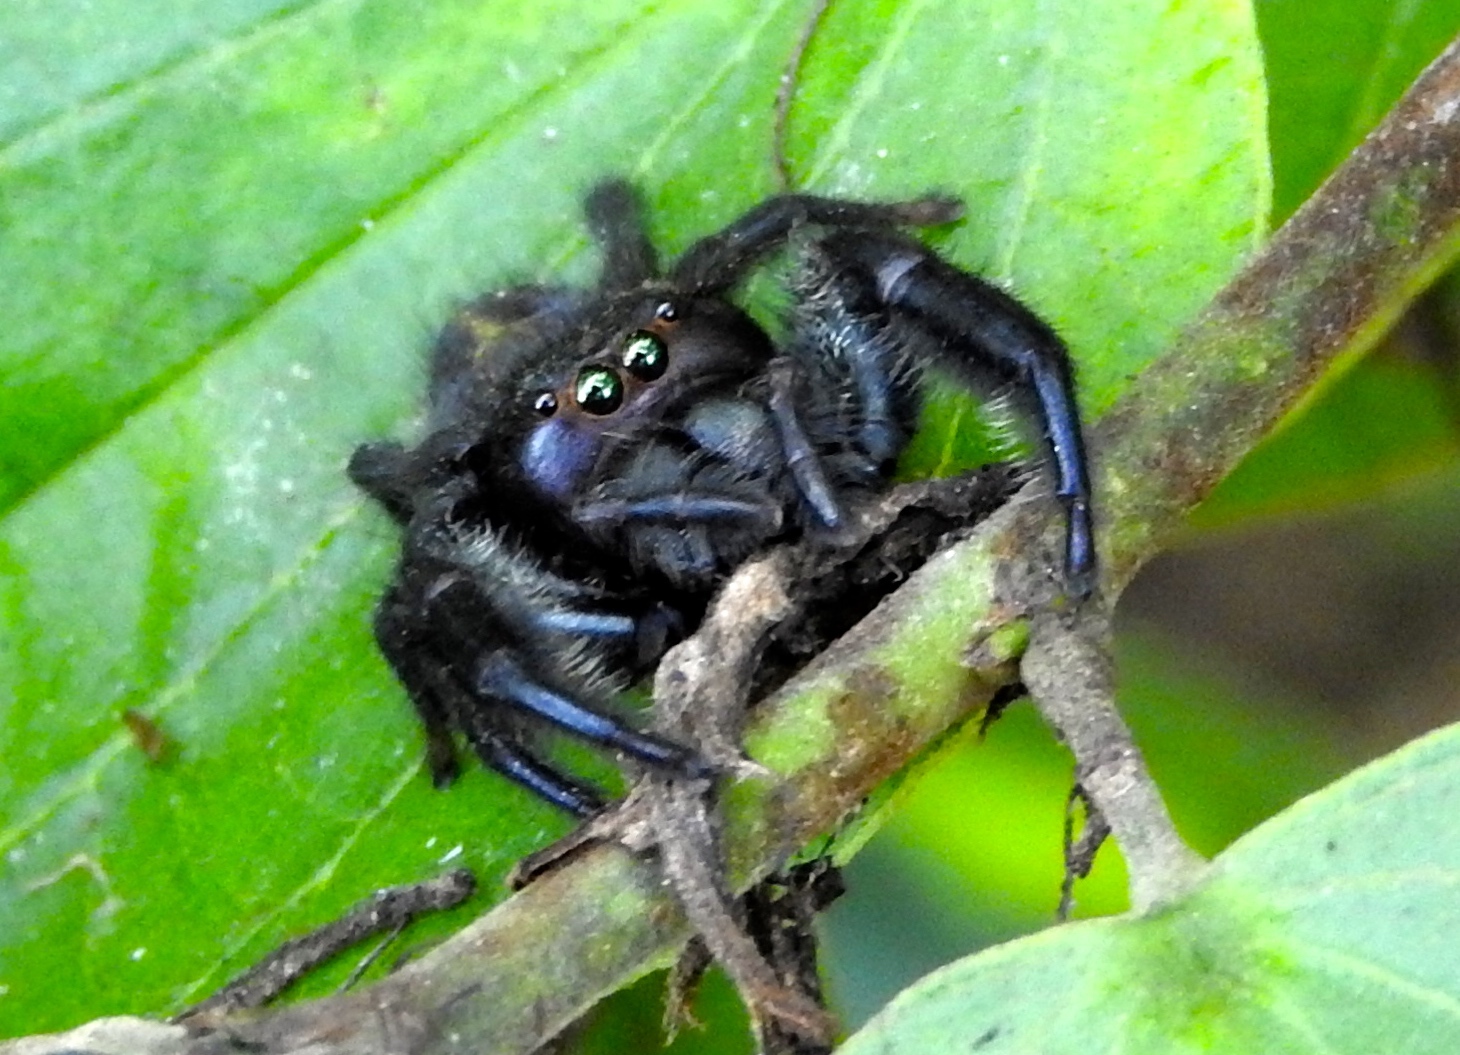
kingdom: Animalia
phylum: Arthropoda
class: Arachnida
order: Araneae
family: Salticidae
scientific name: Salticidae
